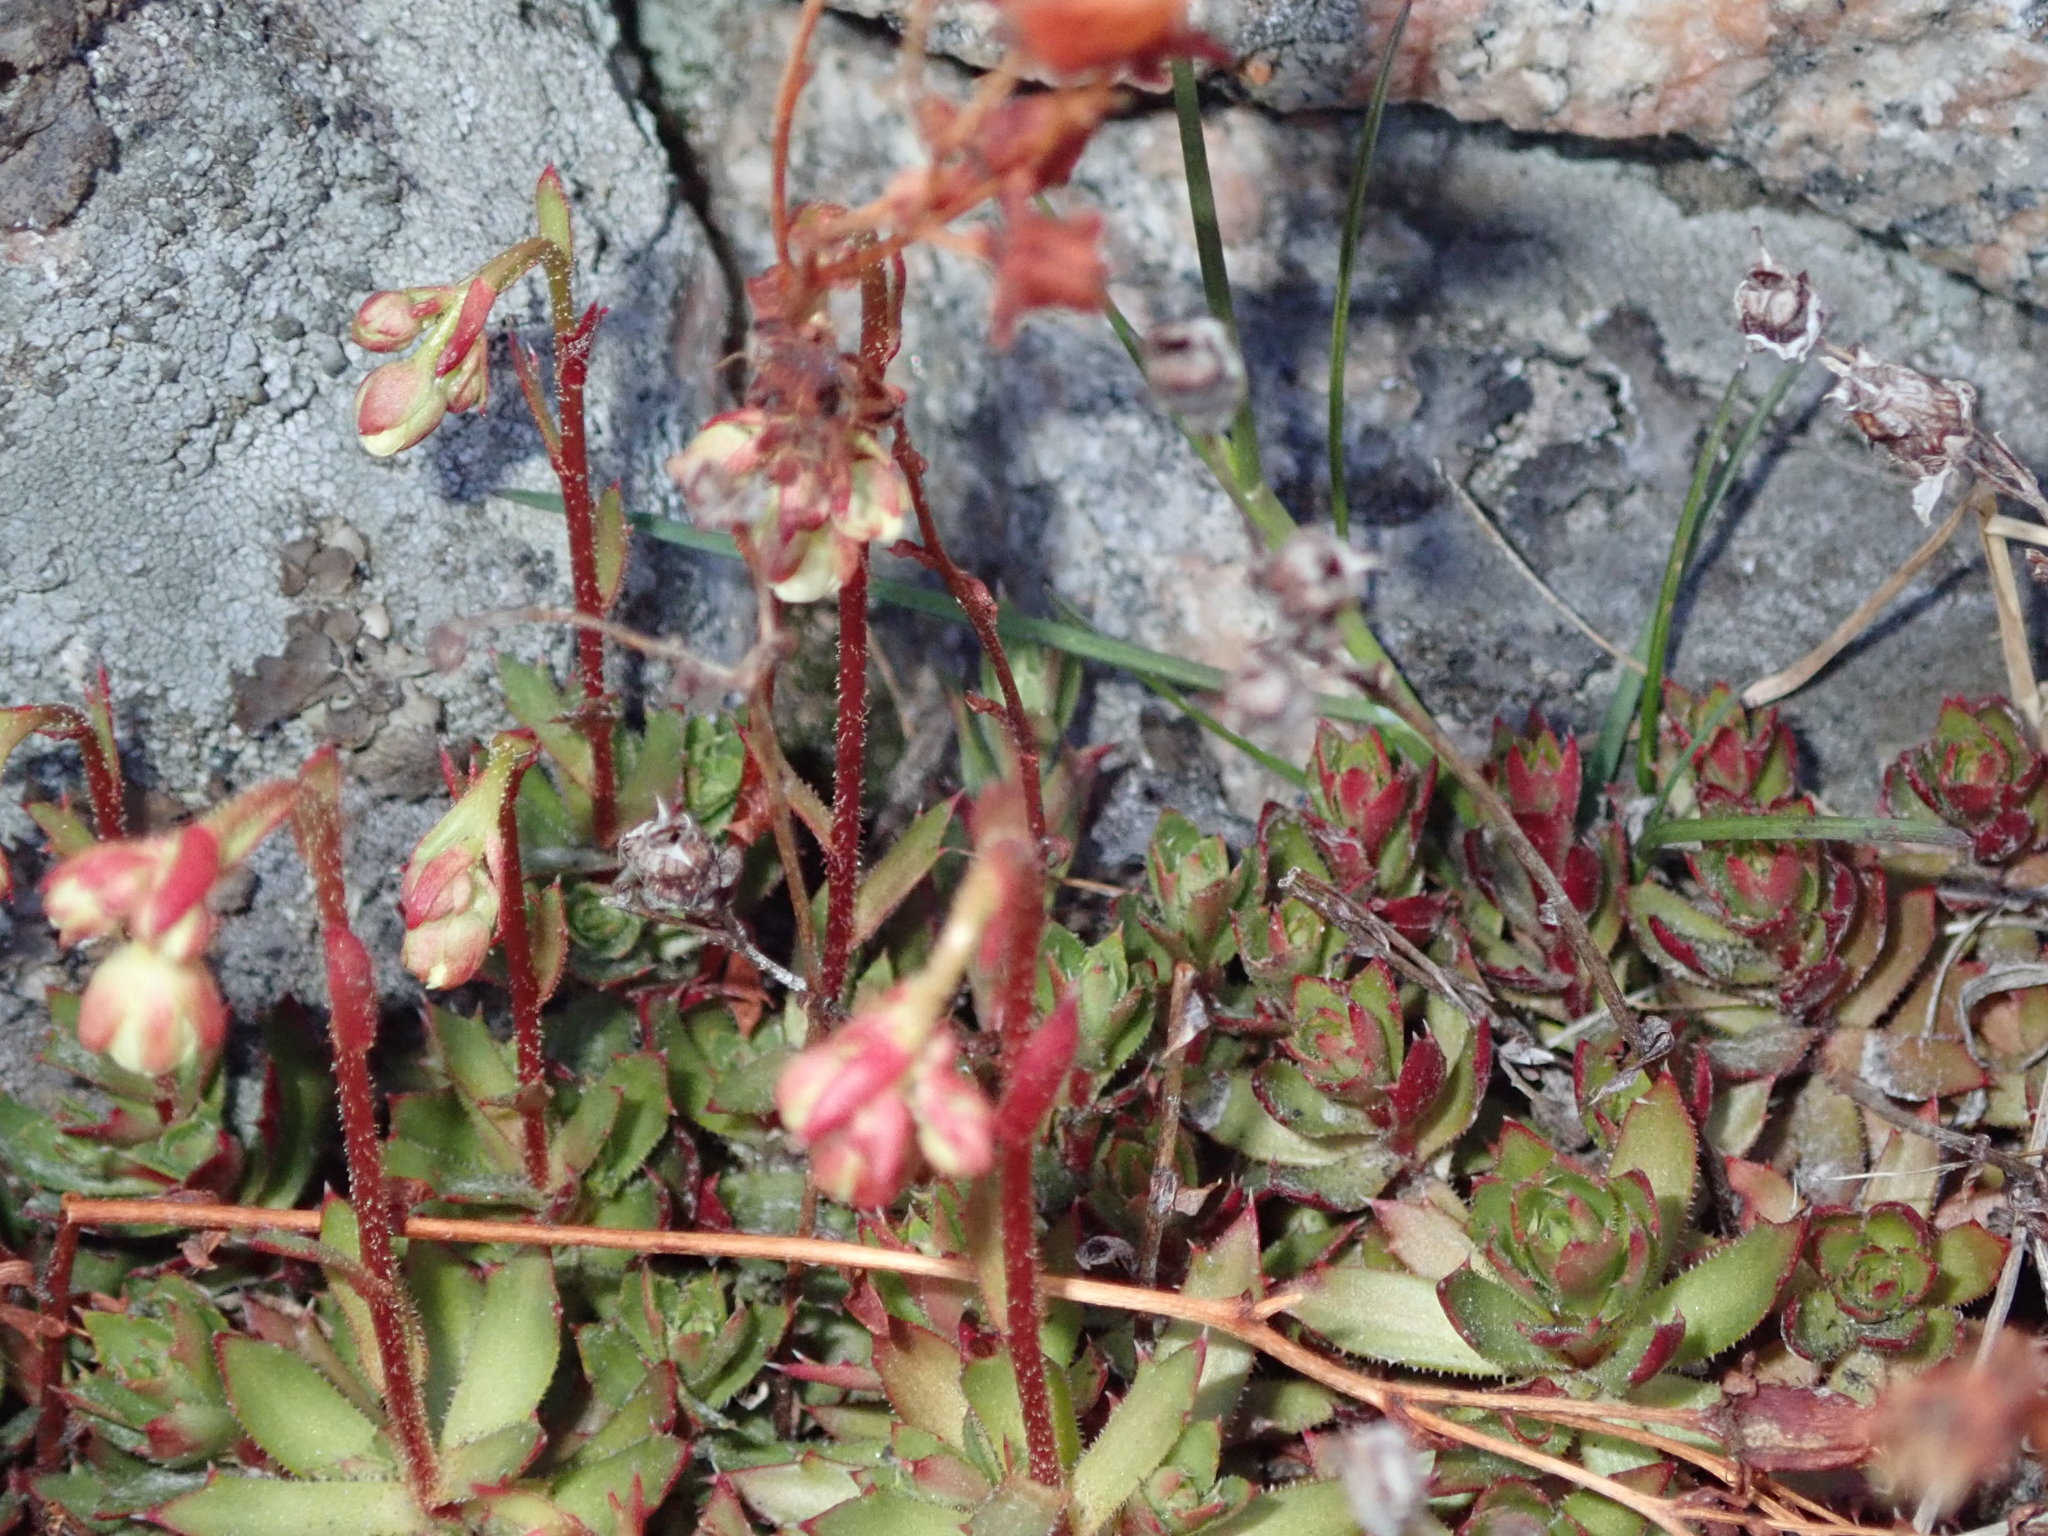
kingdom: Plantae
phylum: Tracheophyta
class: Magnoliopsida
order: Saxifragales
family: Saxifragaceae
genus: Saxifraga
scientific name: Saxifraga tricuspidata
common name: Prickly saxifrage
